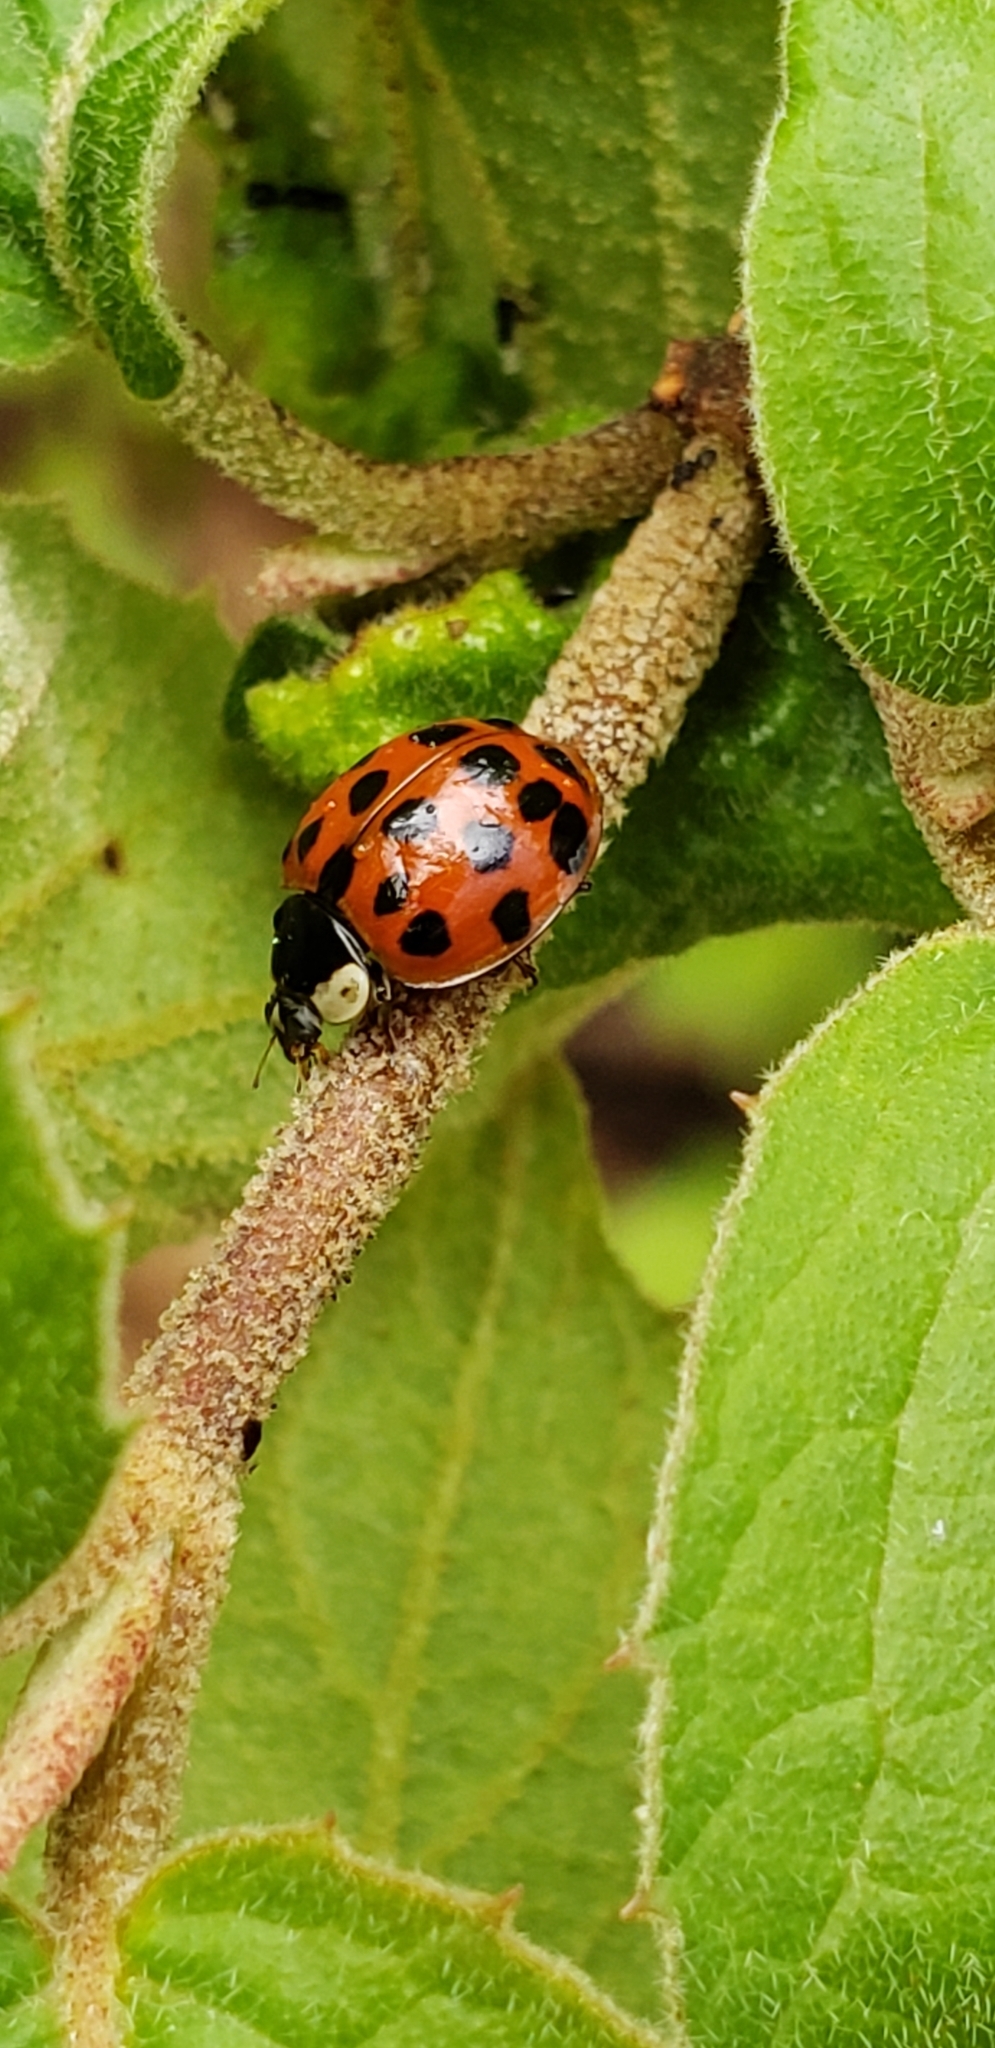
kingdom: Animalia
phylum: Arthropoda
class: Insecta
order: Coleoptera
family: Coccinellidae
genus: Harmonia
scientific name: Harmonia axyridis
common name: Harlequin ladybird
